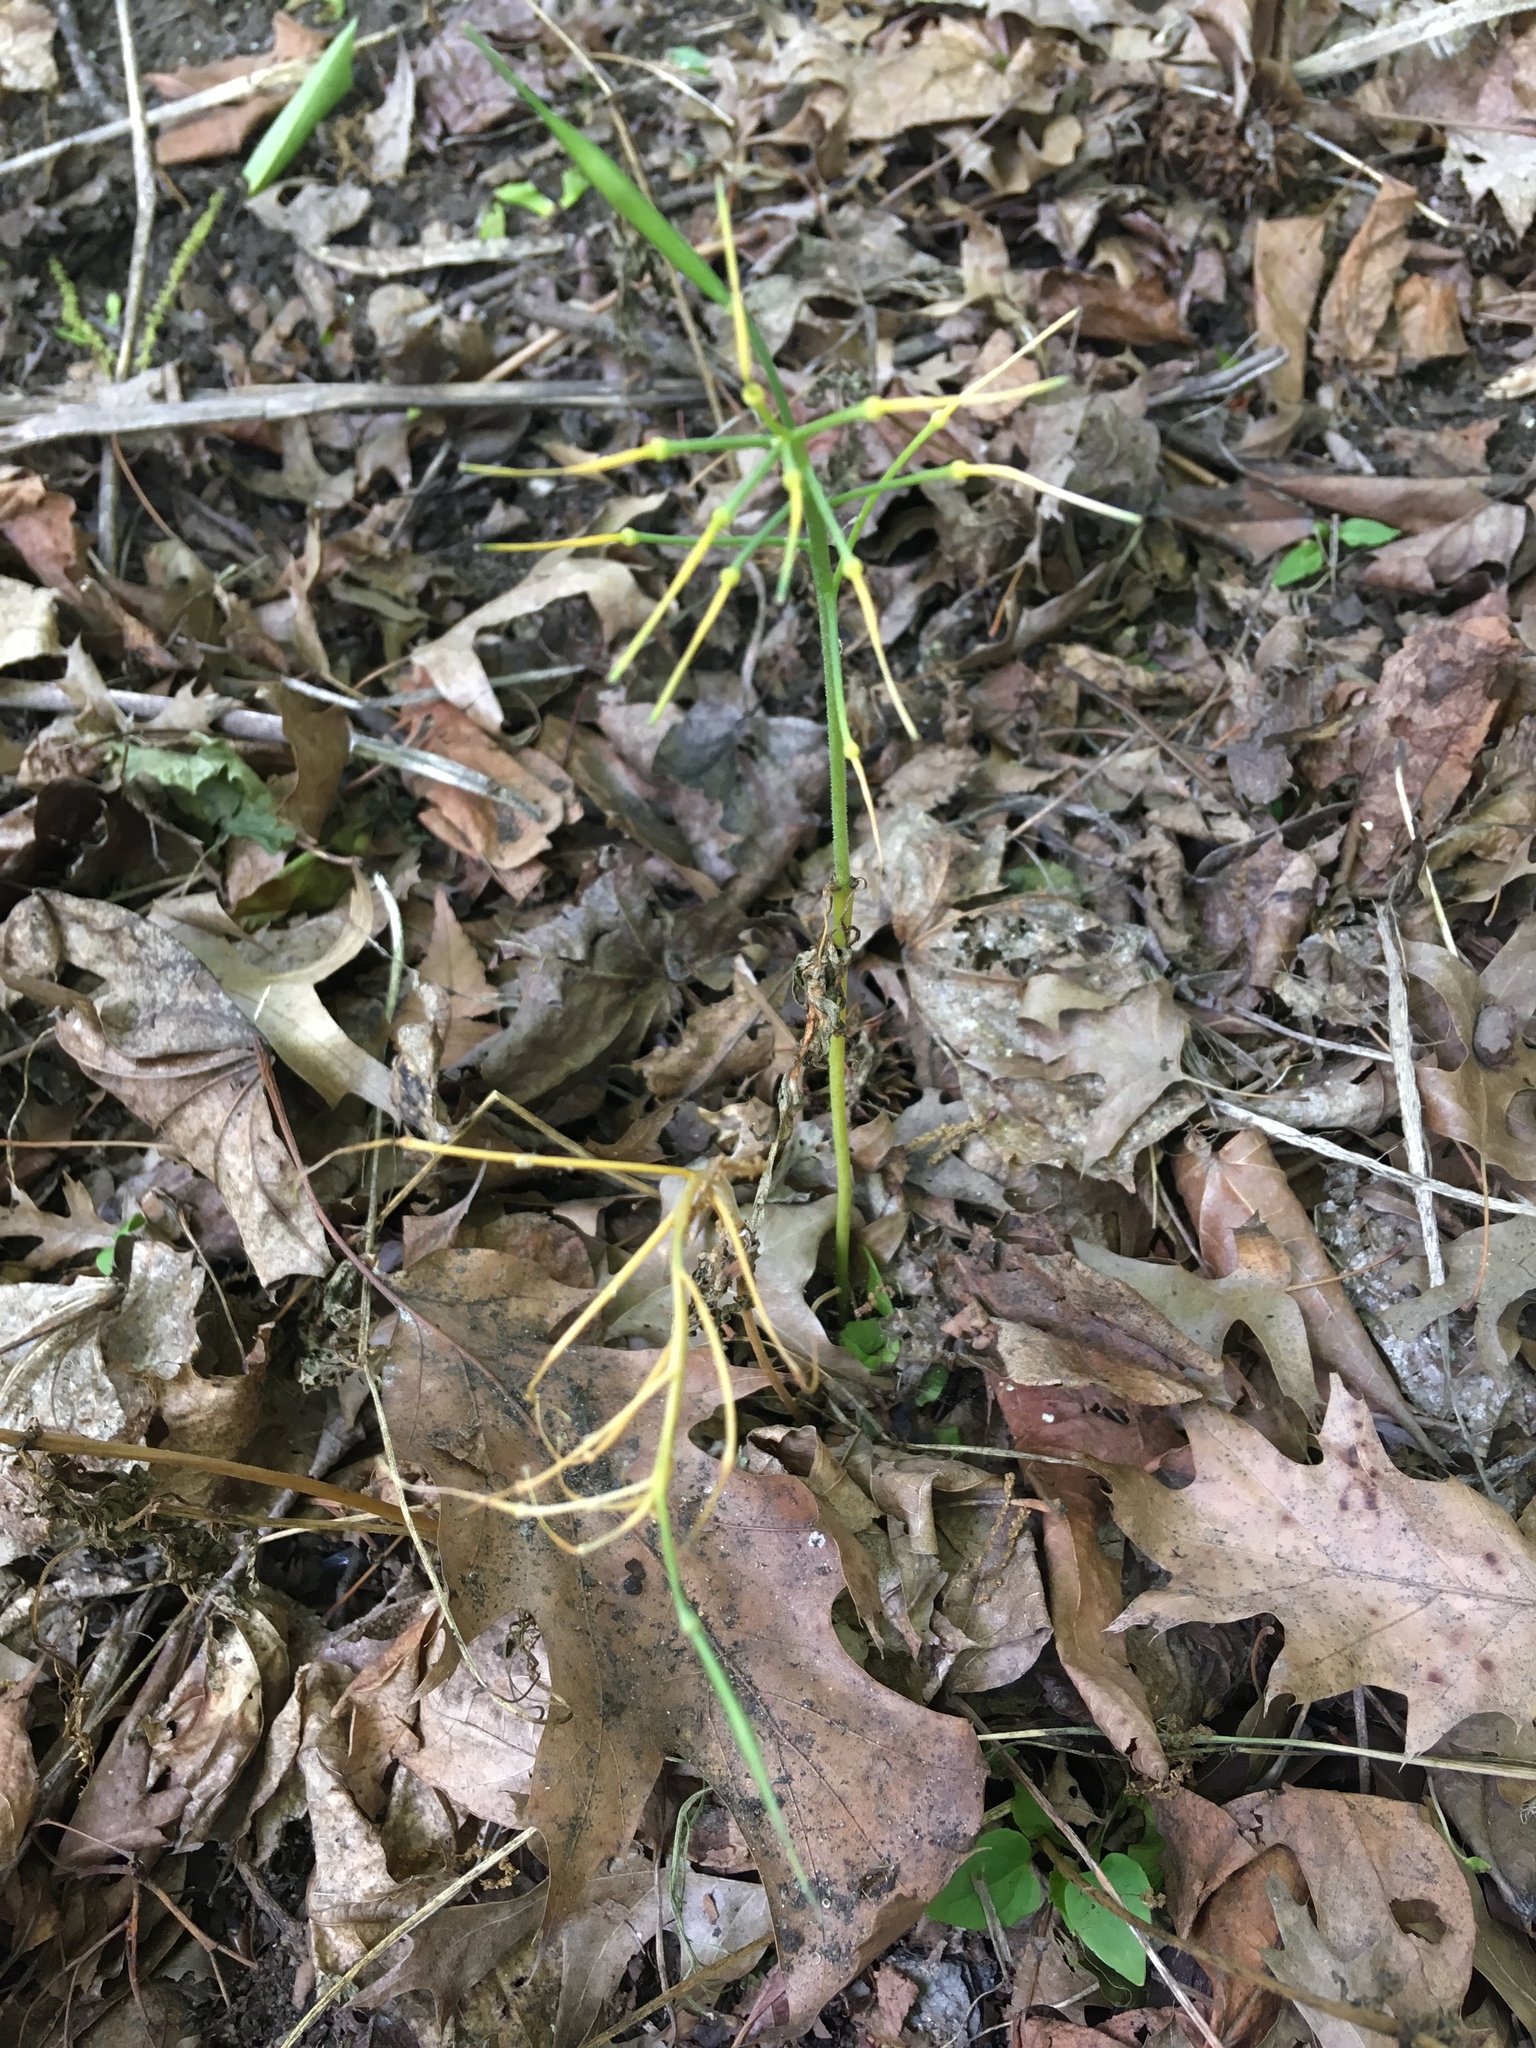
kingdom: Plantae
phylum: Tracheophyta
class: Magnoliopsida
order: Brassicales
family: Brassicaceae
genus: Cardamine
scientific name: Cardamine concatenata
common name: Cut-leaf toothcup
